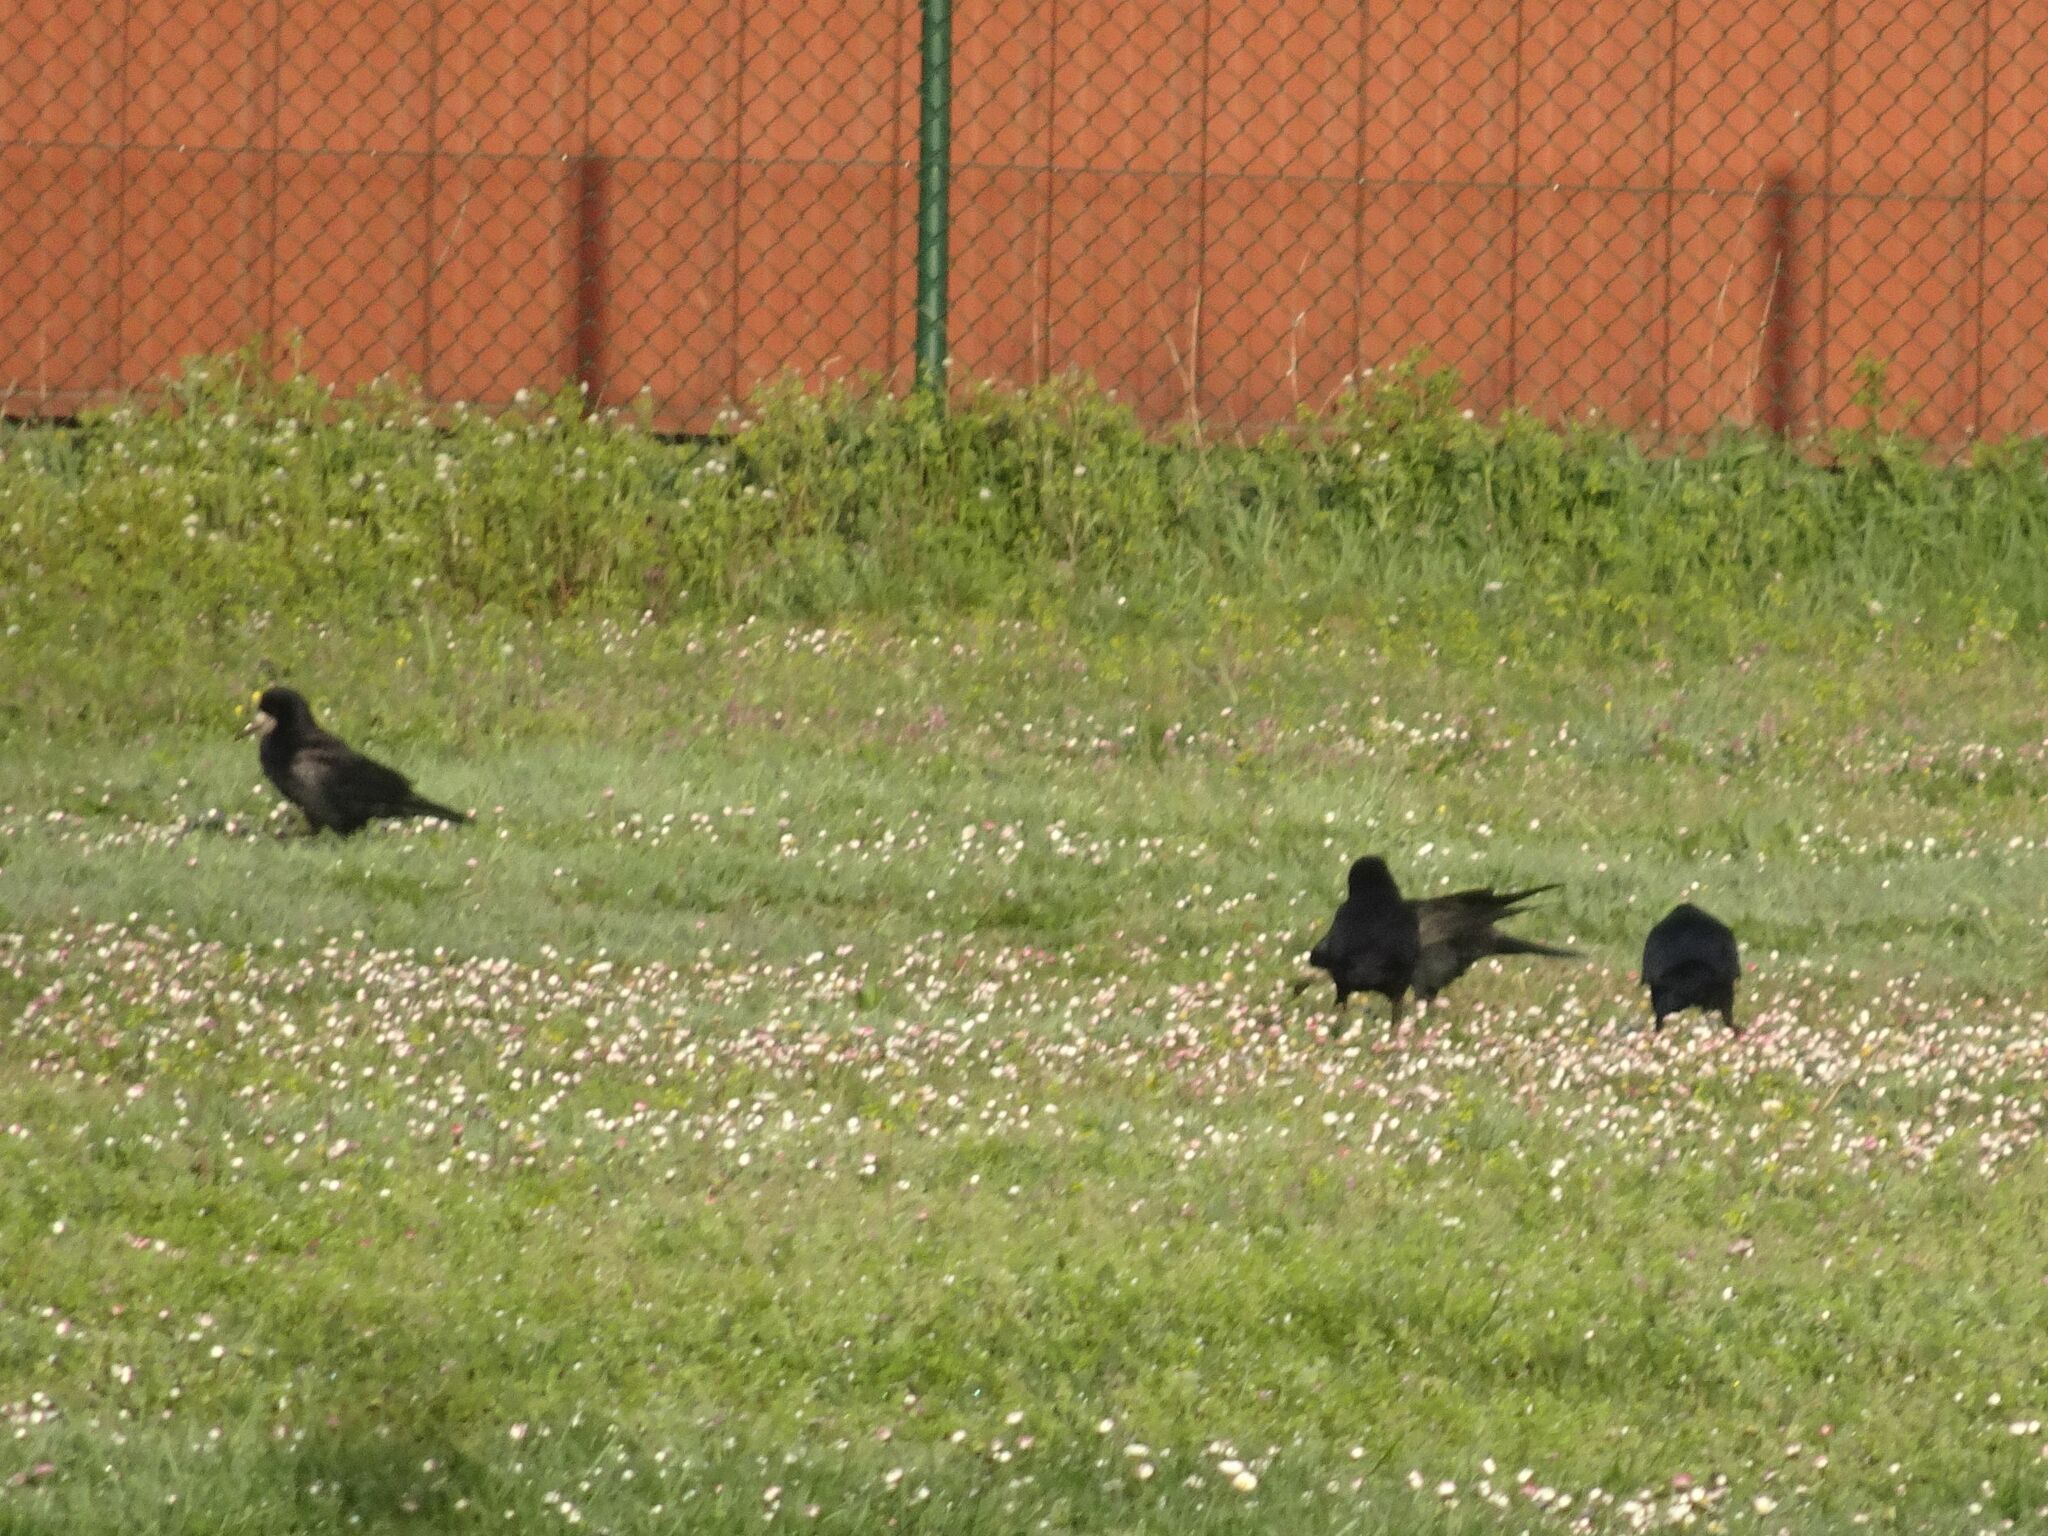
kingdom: Animalia
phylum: Chordata
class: Aves
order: Passeriformes
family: Corvidae
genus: Corvus
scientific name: Corvus frugilegus
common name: Rook
